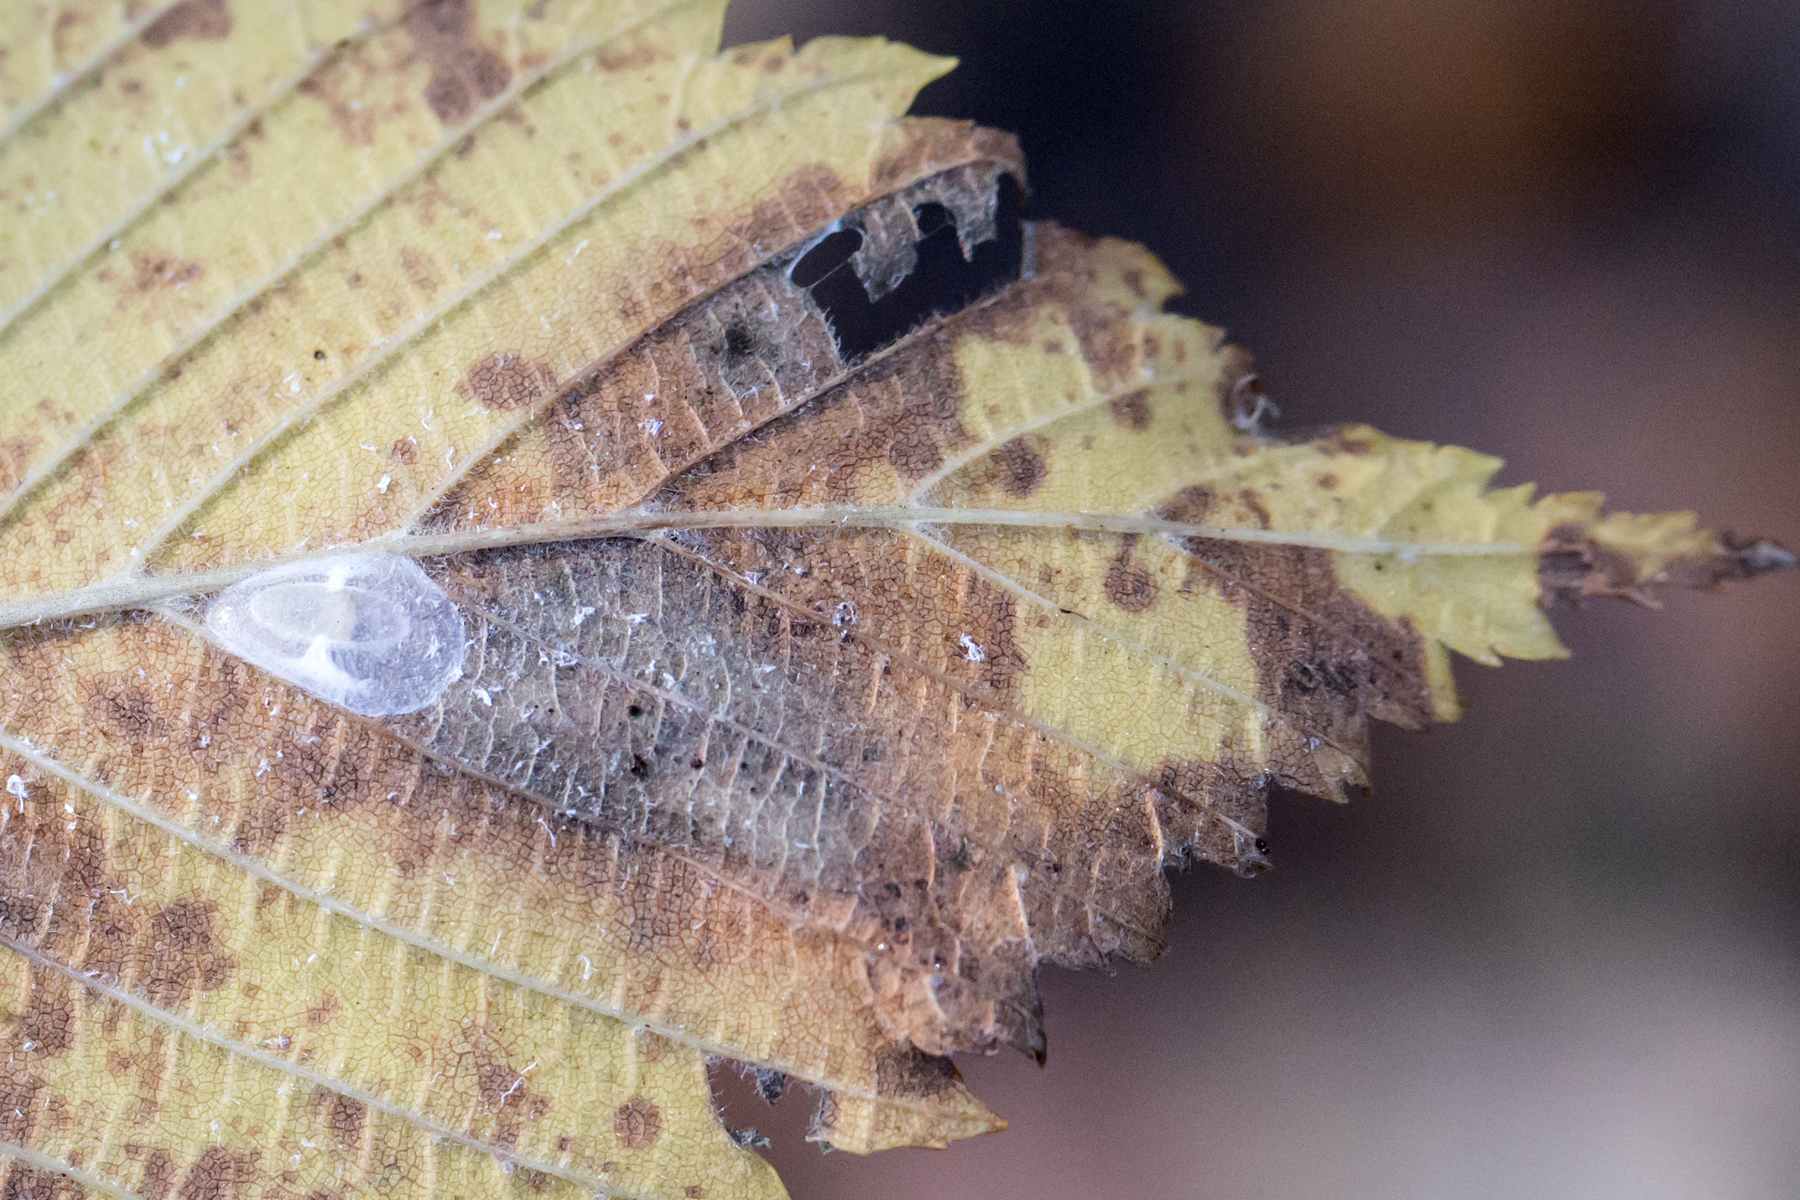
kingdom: Animalia
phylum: Arthropoda
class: Insecta
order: Lepidoptera
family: Gracillariidae
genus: Cameraria
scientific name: Cameraria ulmella
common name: Elm leafminer
